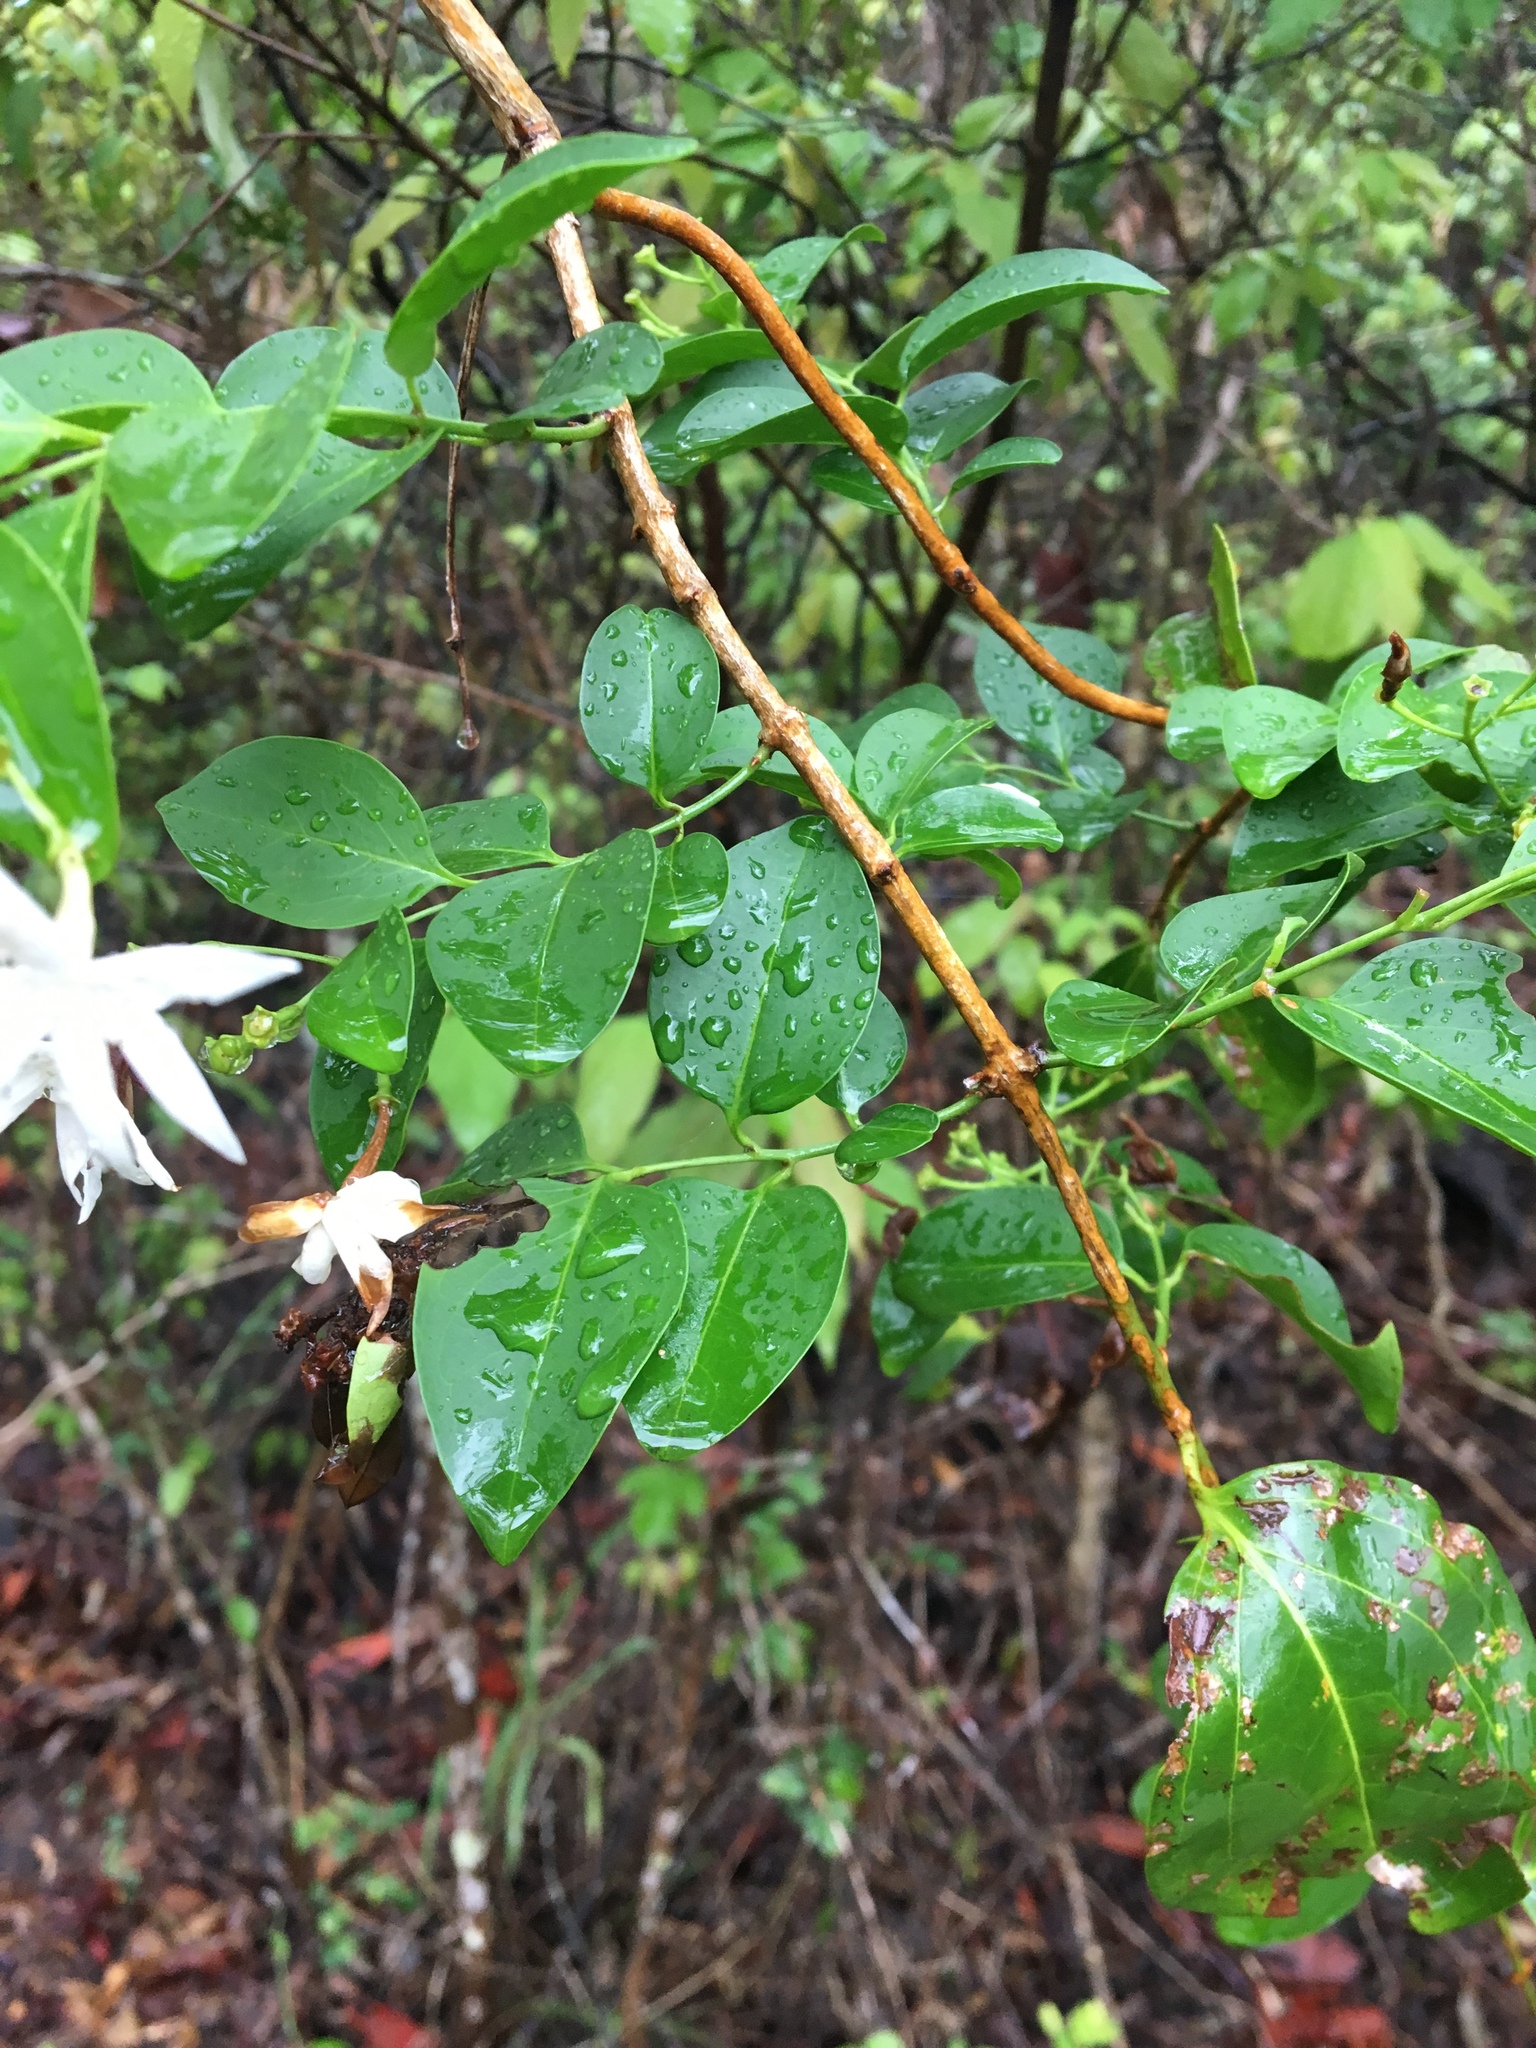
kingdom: Plantae
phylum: Tracheophyta
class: Magnoliopsida
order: Lamiales
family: Oleaceae
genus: Jasminum
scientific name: Jasminum elongatum
